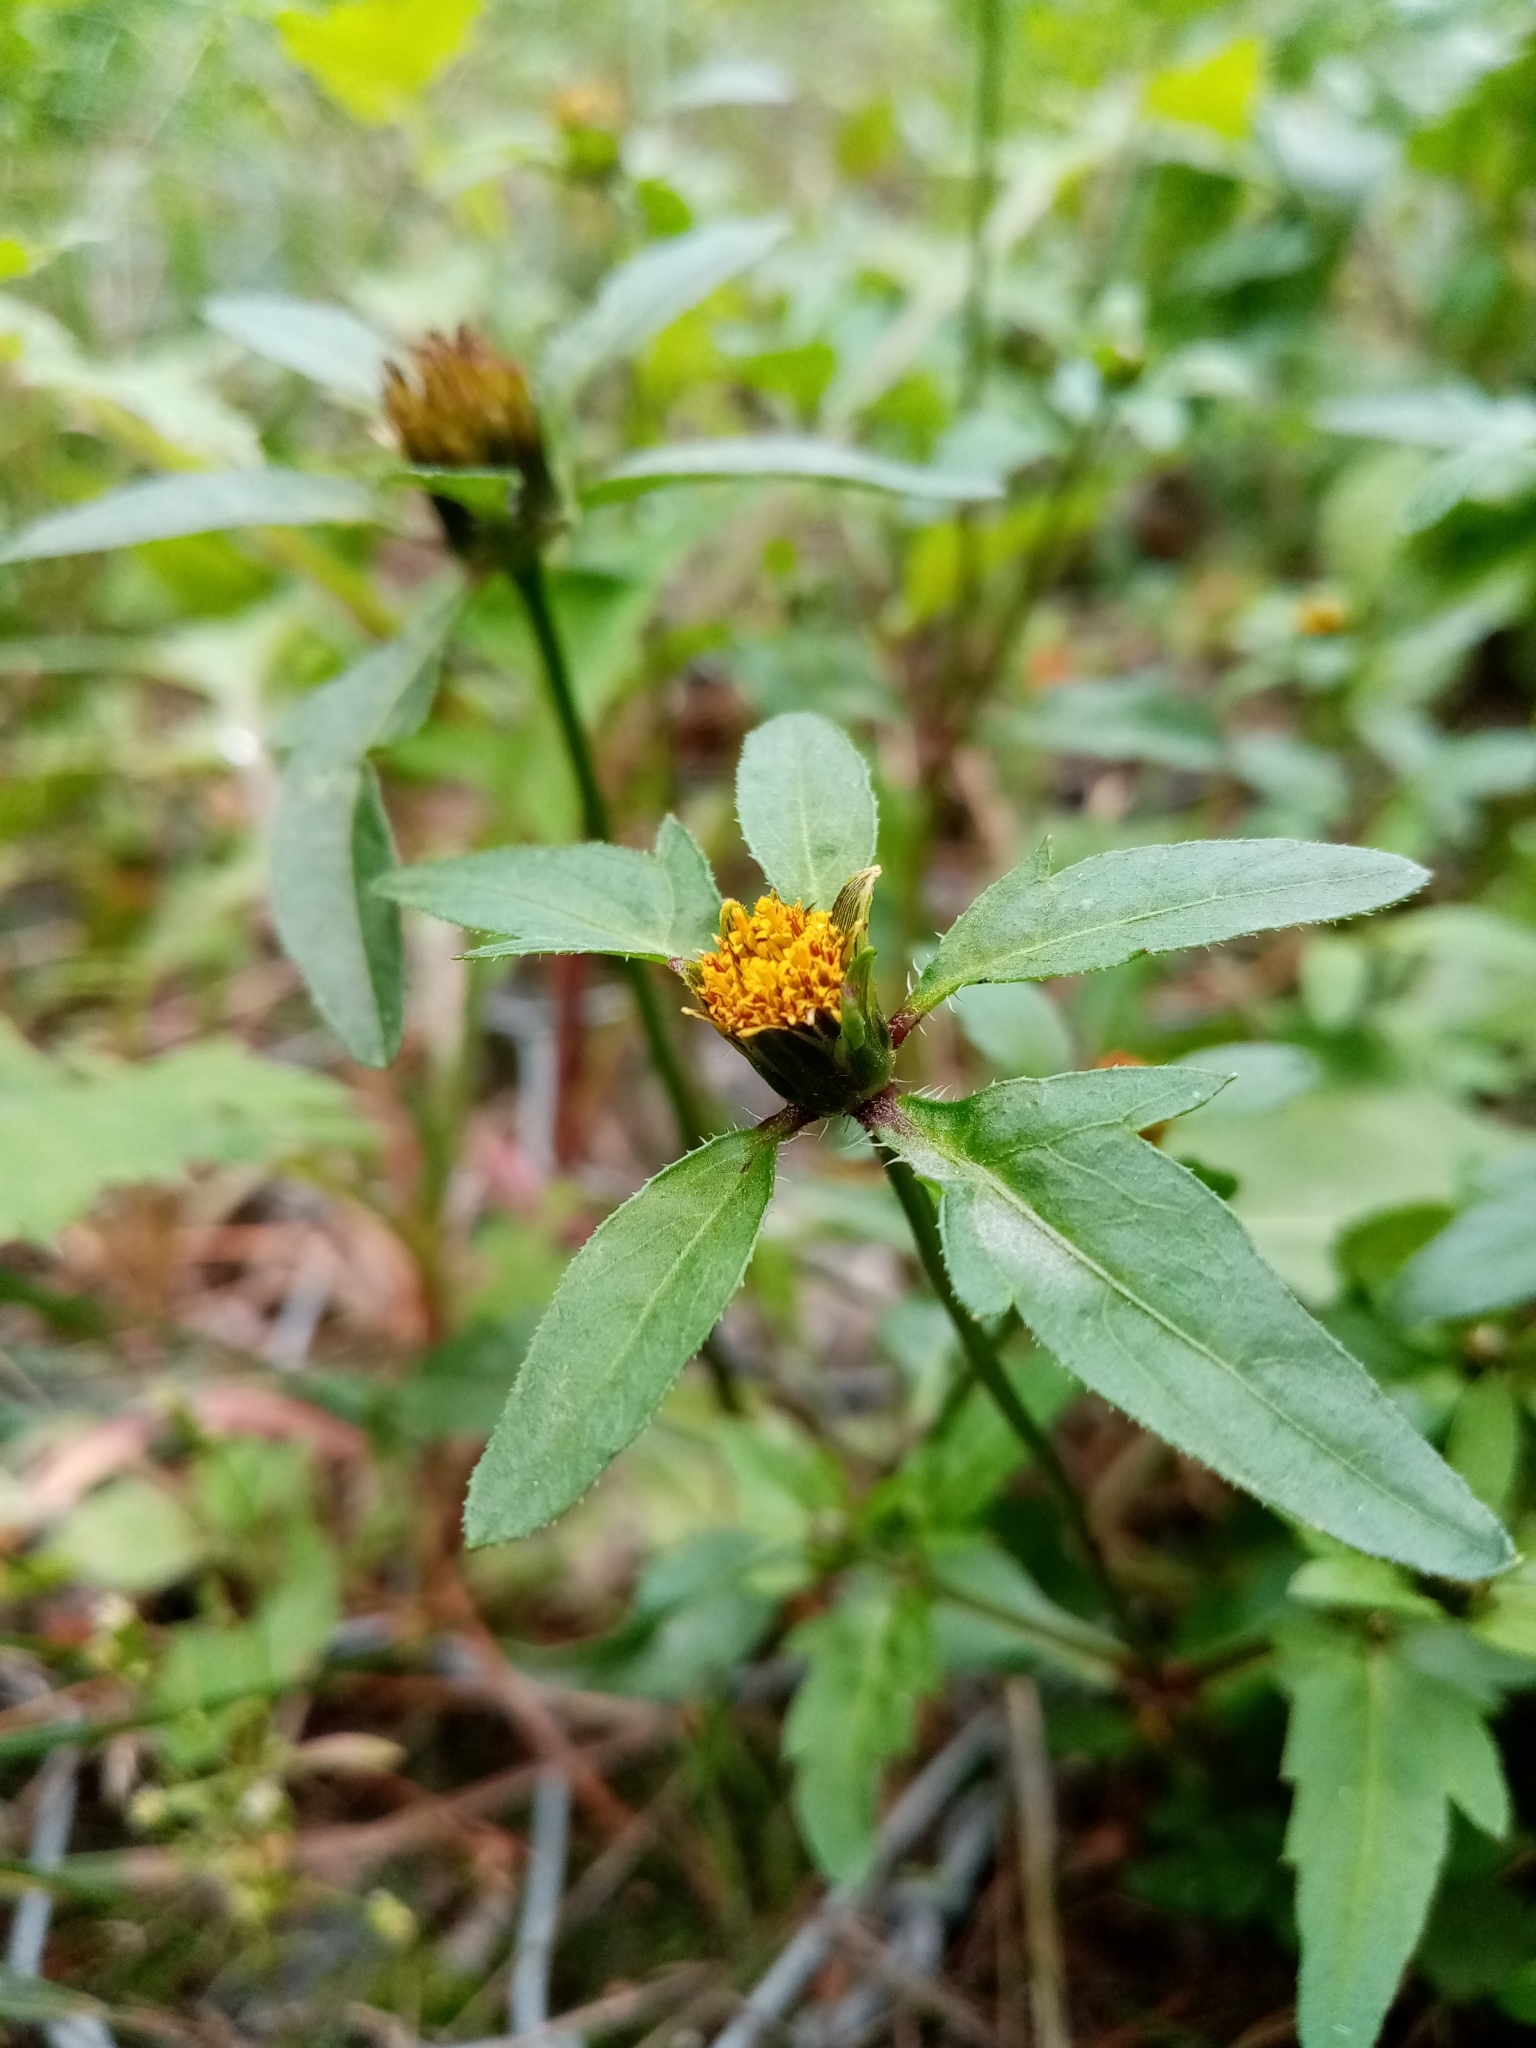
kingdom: Plantae
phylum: Tracheophyta
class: Magnoliopsida
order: Asterales
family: Asteraceae
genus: Bidens
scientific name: Bidens tripartita
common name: Trifid bur-marigold
